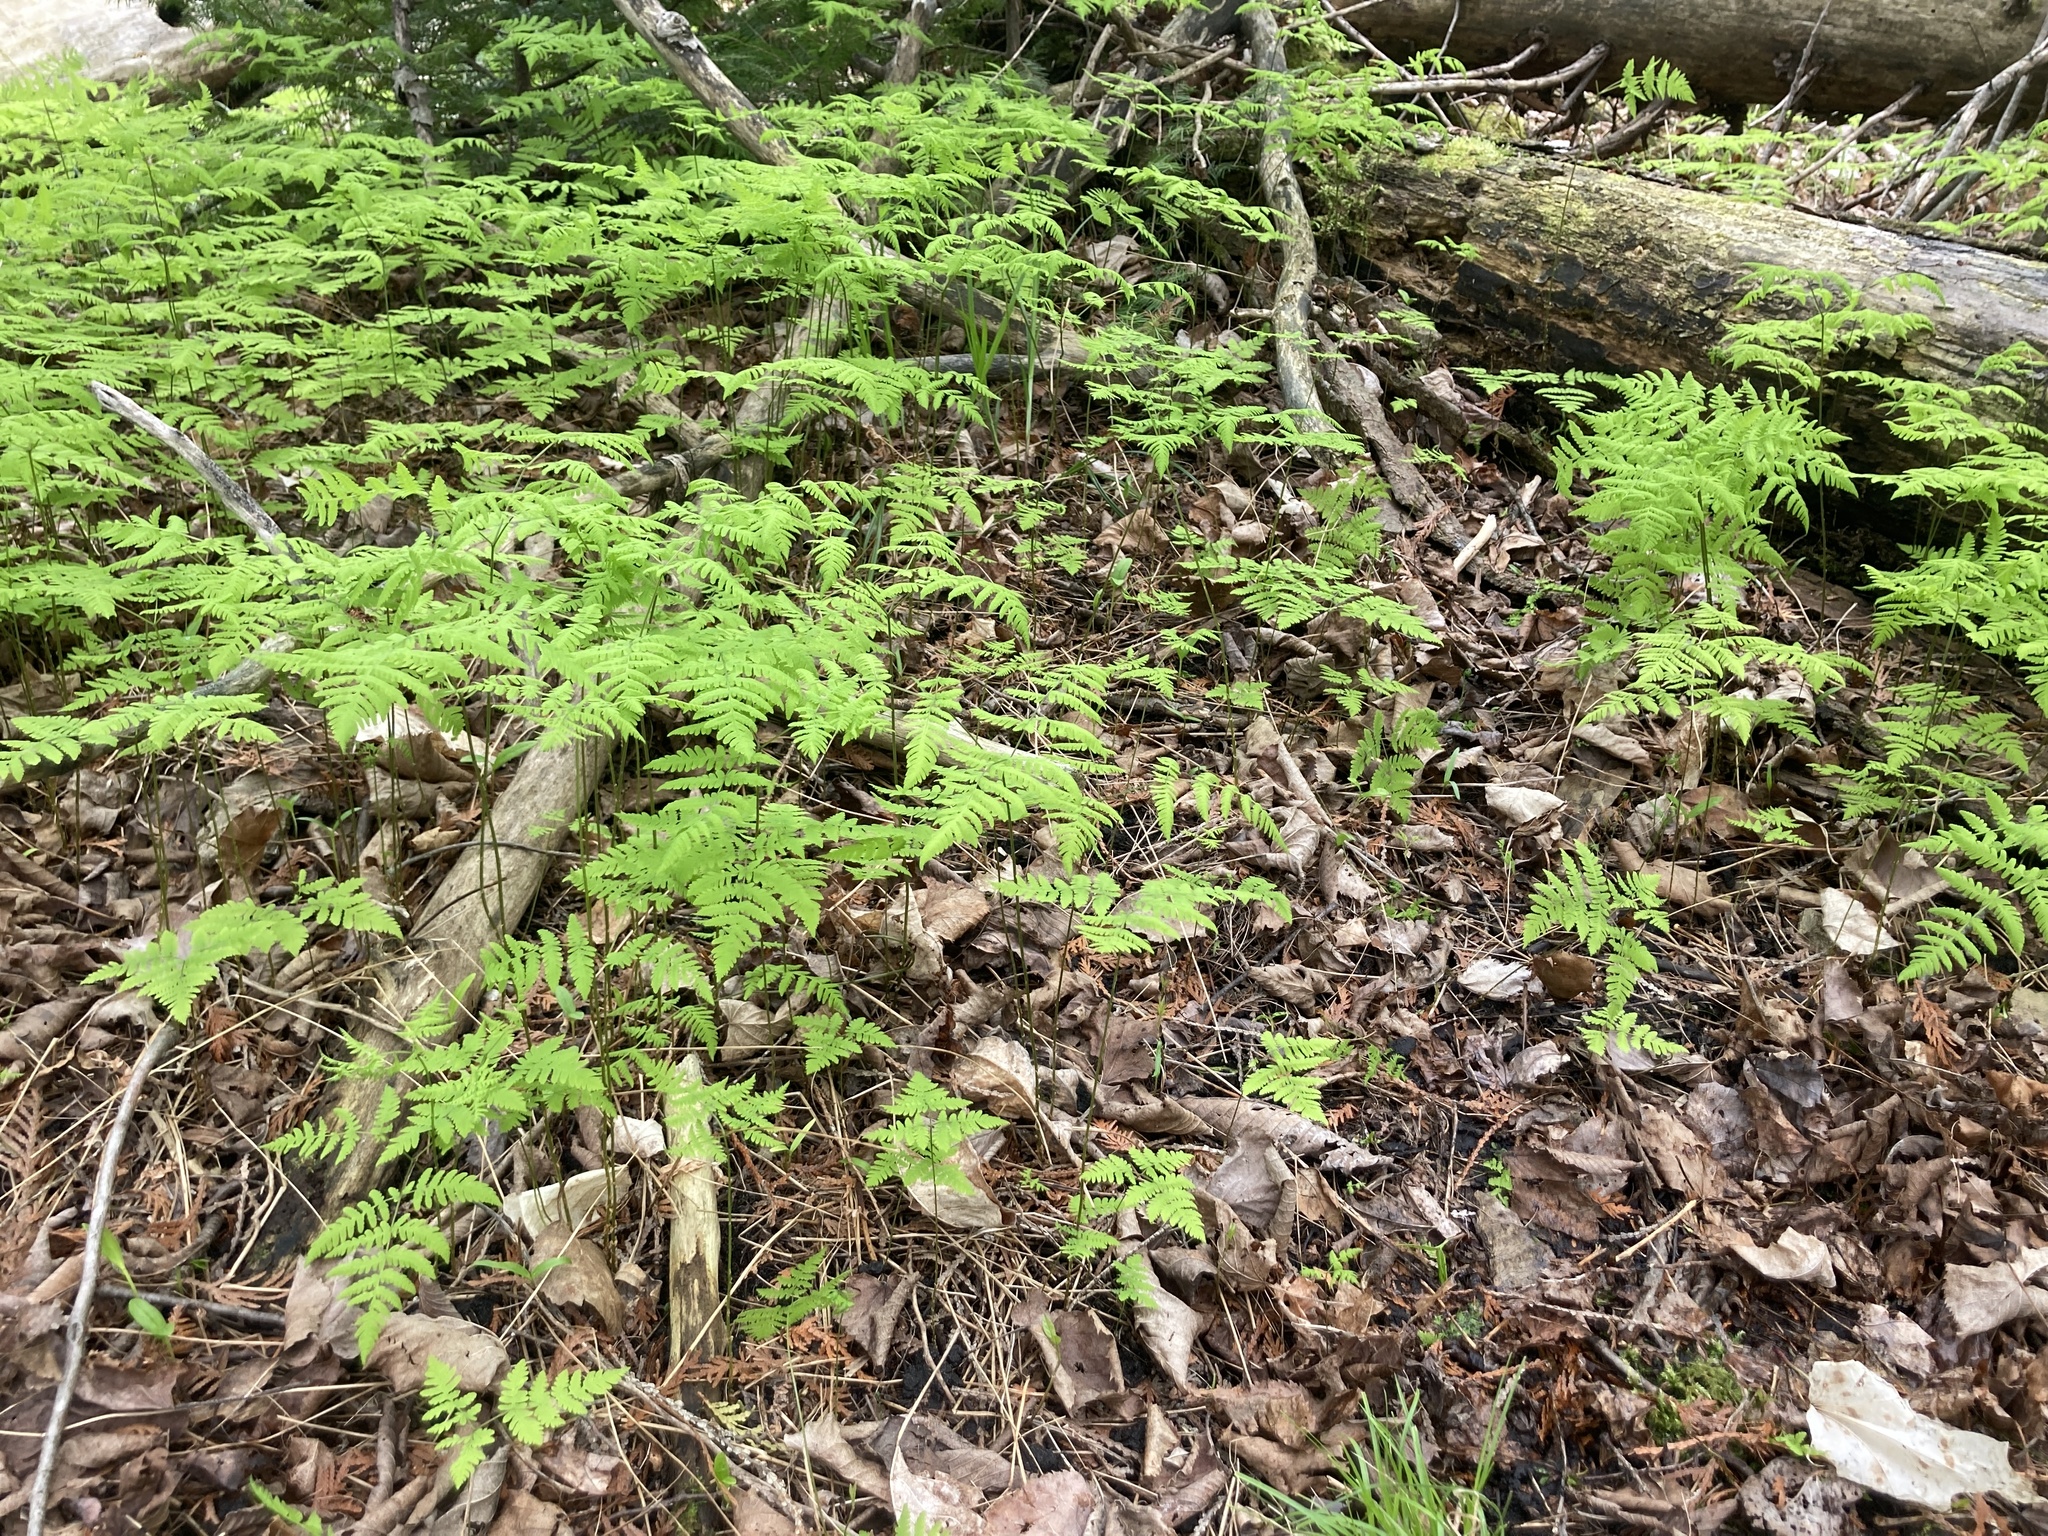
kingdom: Plantae
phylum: Tracheophyta
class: Polypodiopsida
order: Polypodiales
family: Cystopteridaceae
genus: Gymnocarpium
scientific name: Gymnocarpium dryopteris
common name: Oak fern
